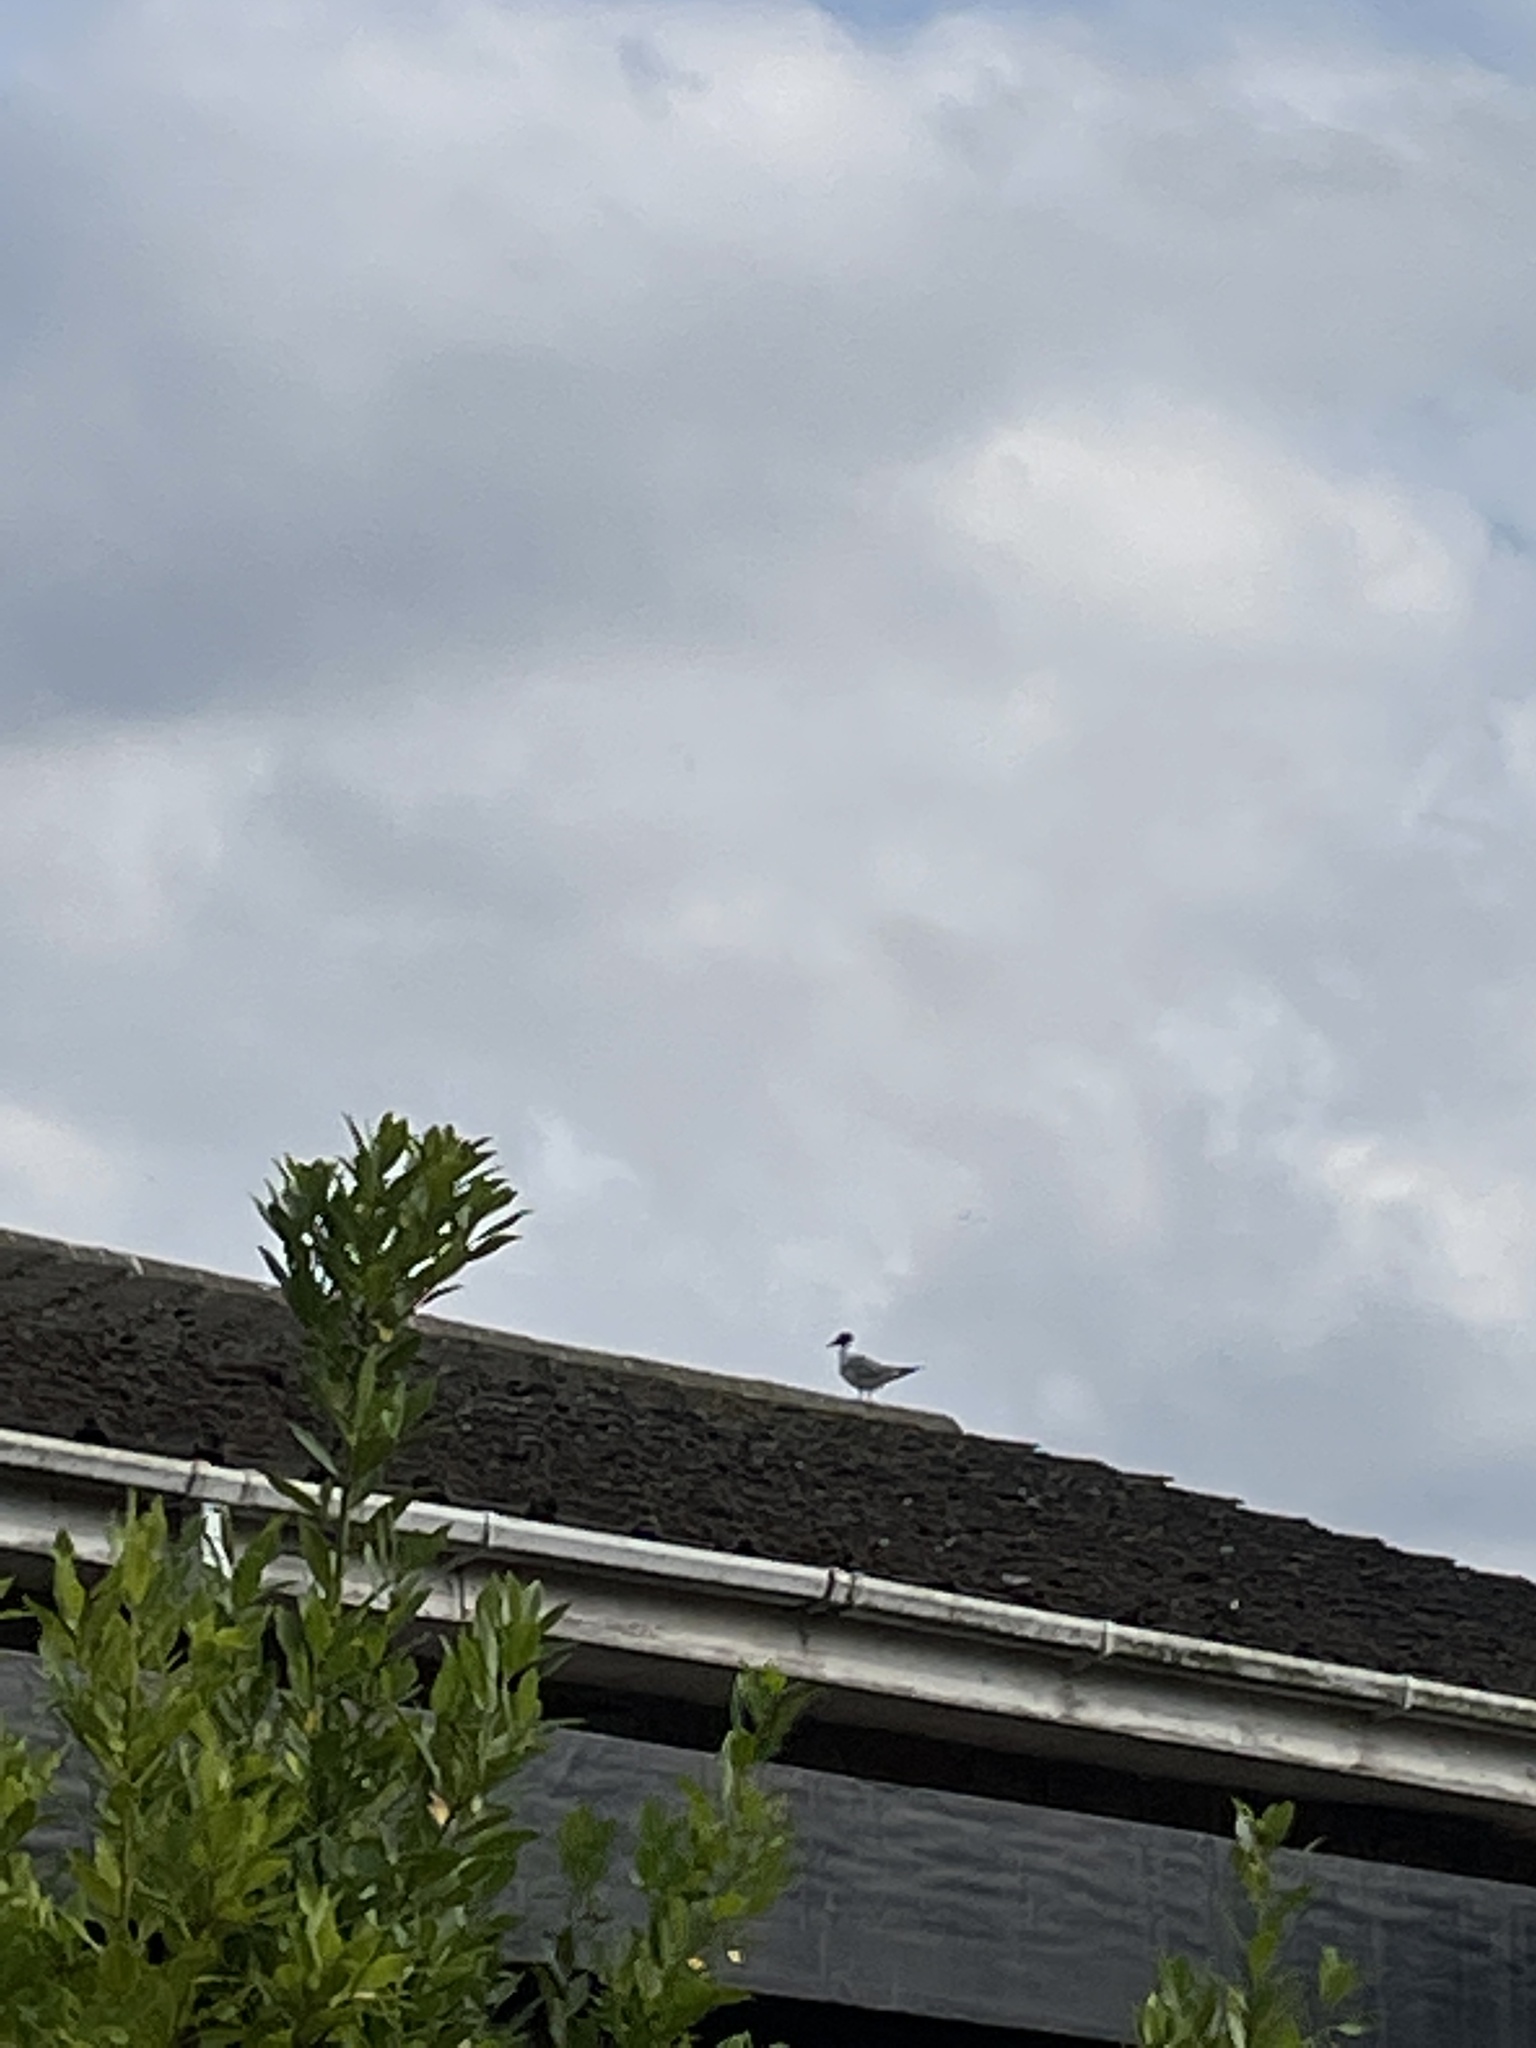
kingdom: Animalia
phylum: Chordata
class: Aves
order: Charadriiformes
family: Laridae
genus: Chroicocephalus
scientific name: Chroicocephalus ridibundus
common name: Black-headed gull
